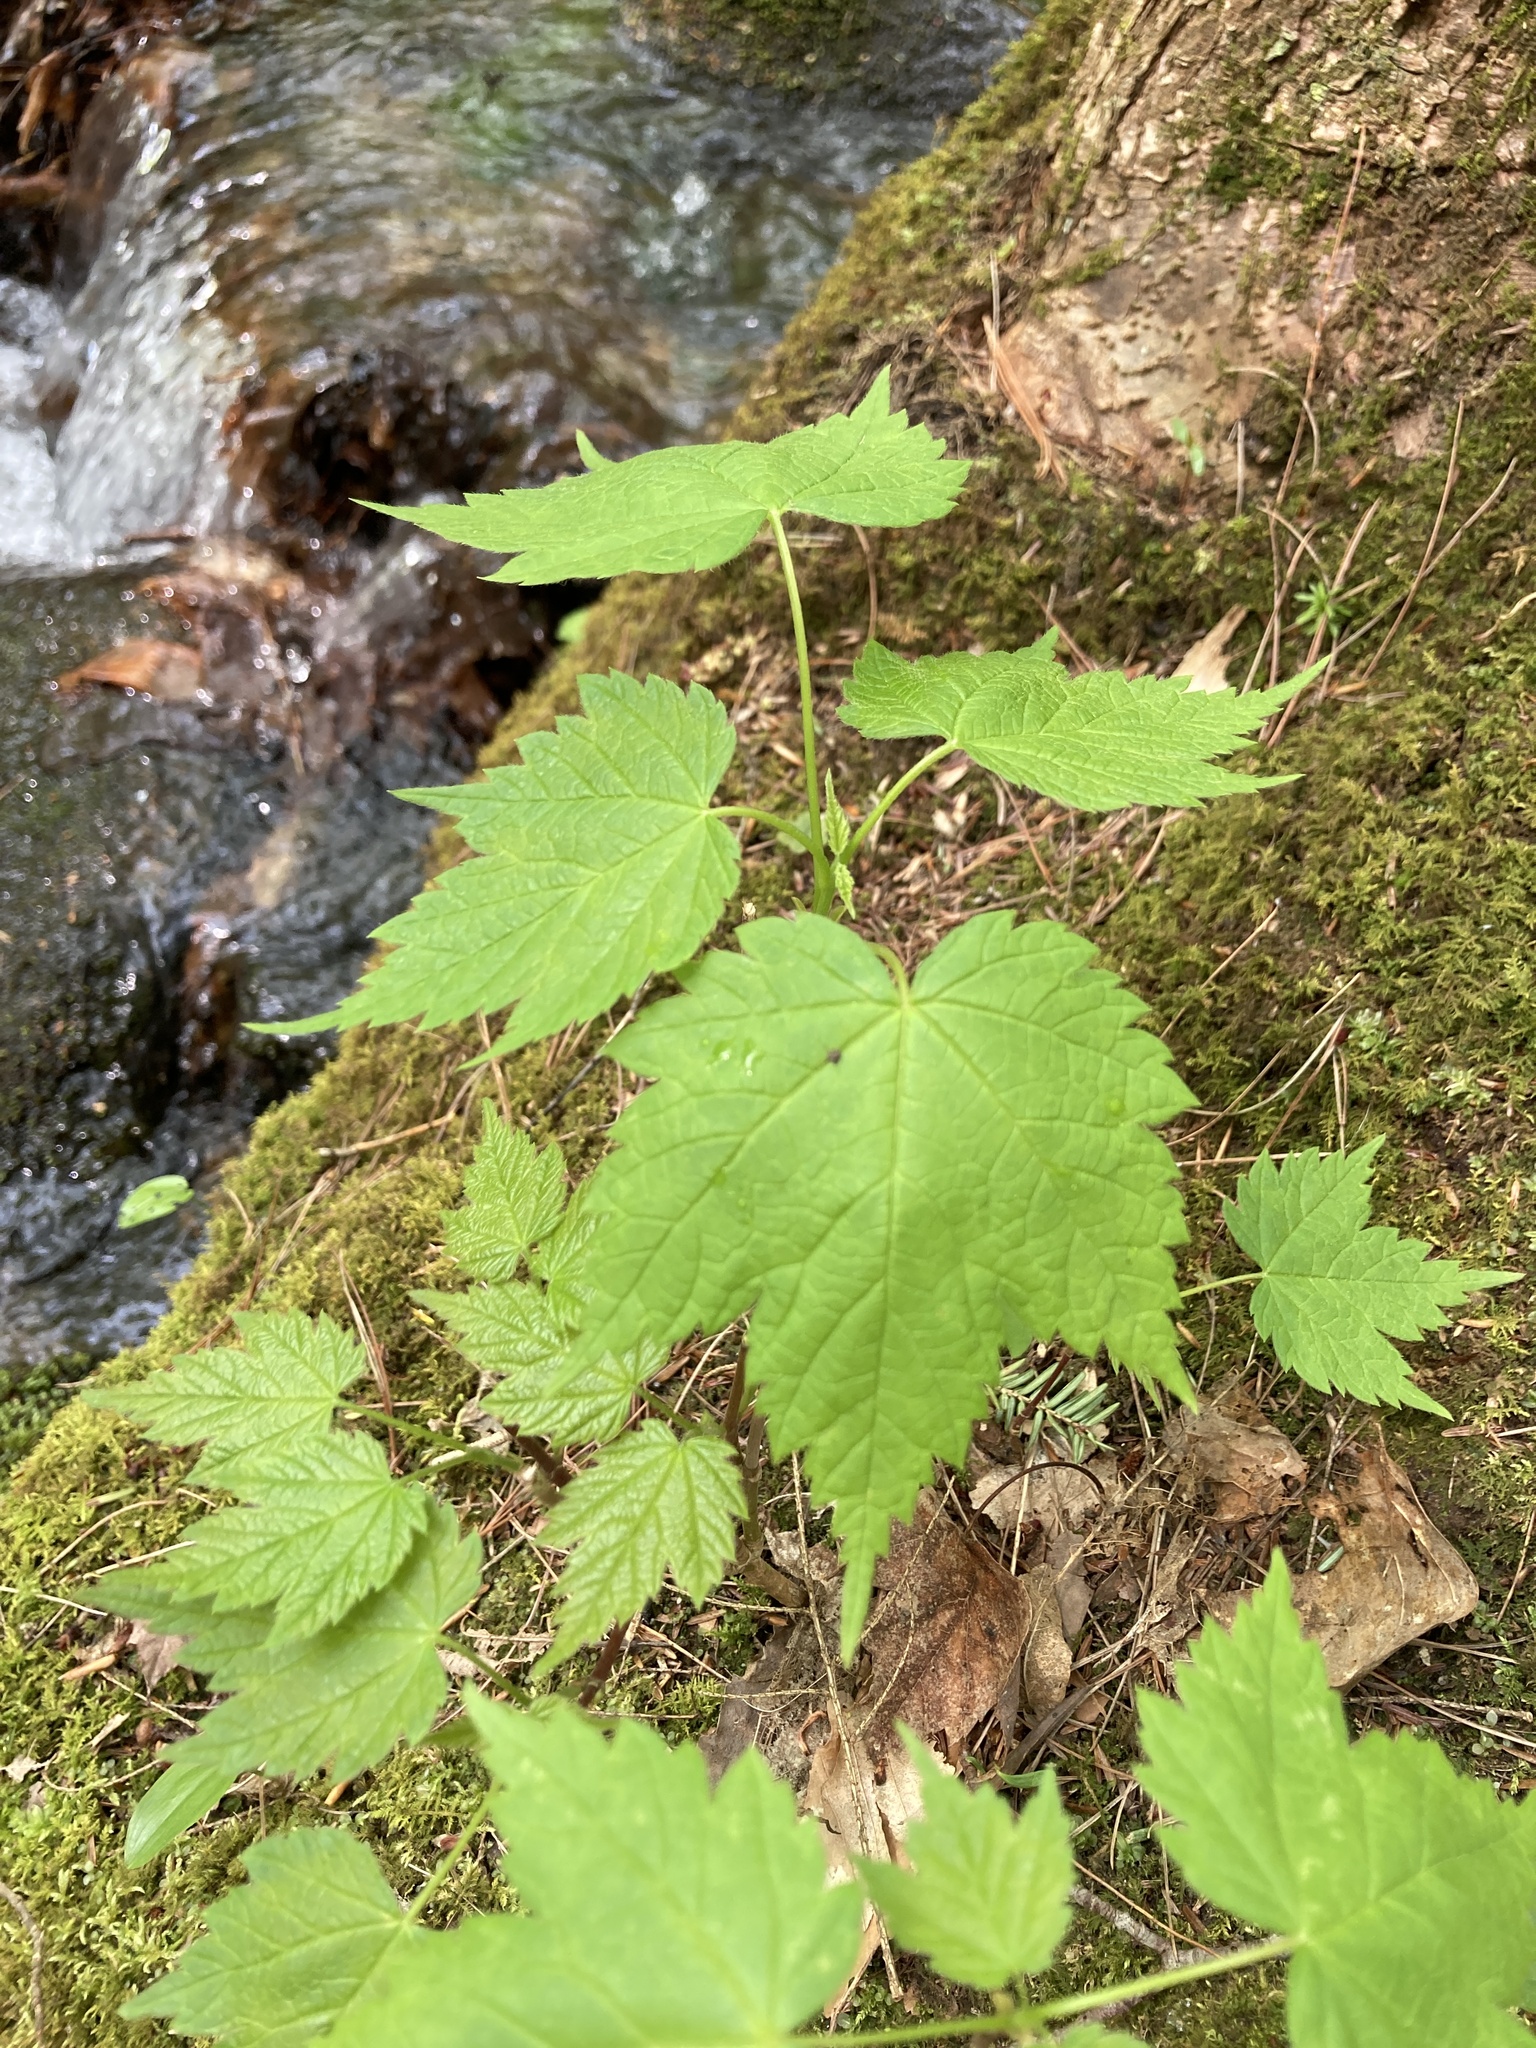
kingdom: Plantae
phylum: Tracheophyta
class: Magnoliopsida
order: Sapindales
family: Sapindaceae
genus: Acer
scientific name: Acer spicatum
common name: Mountain maple
